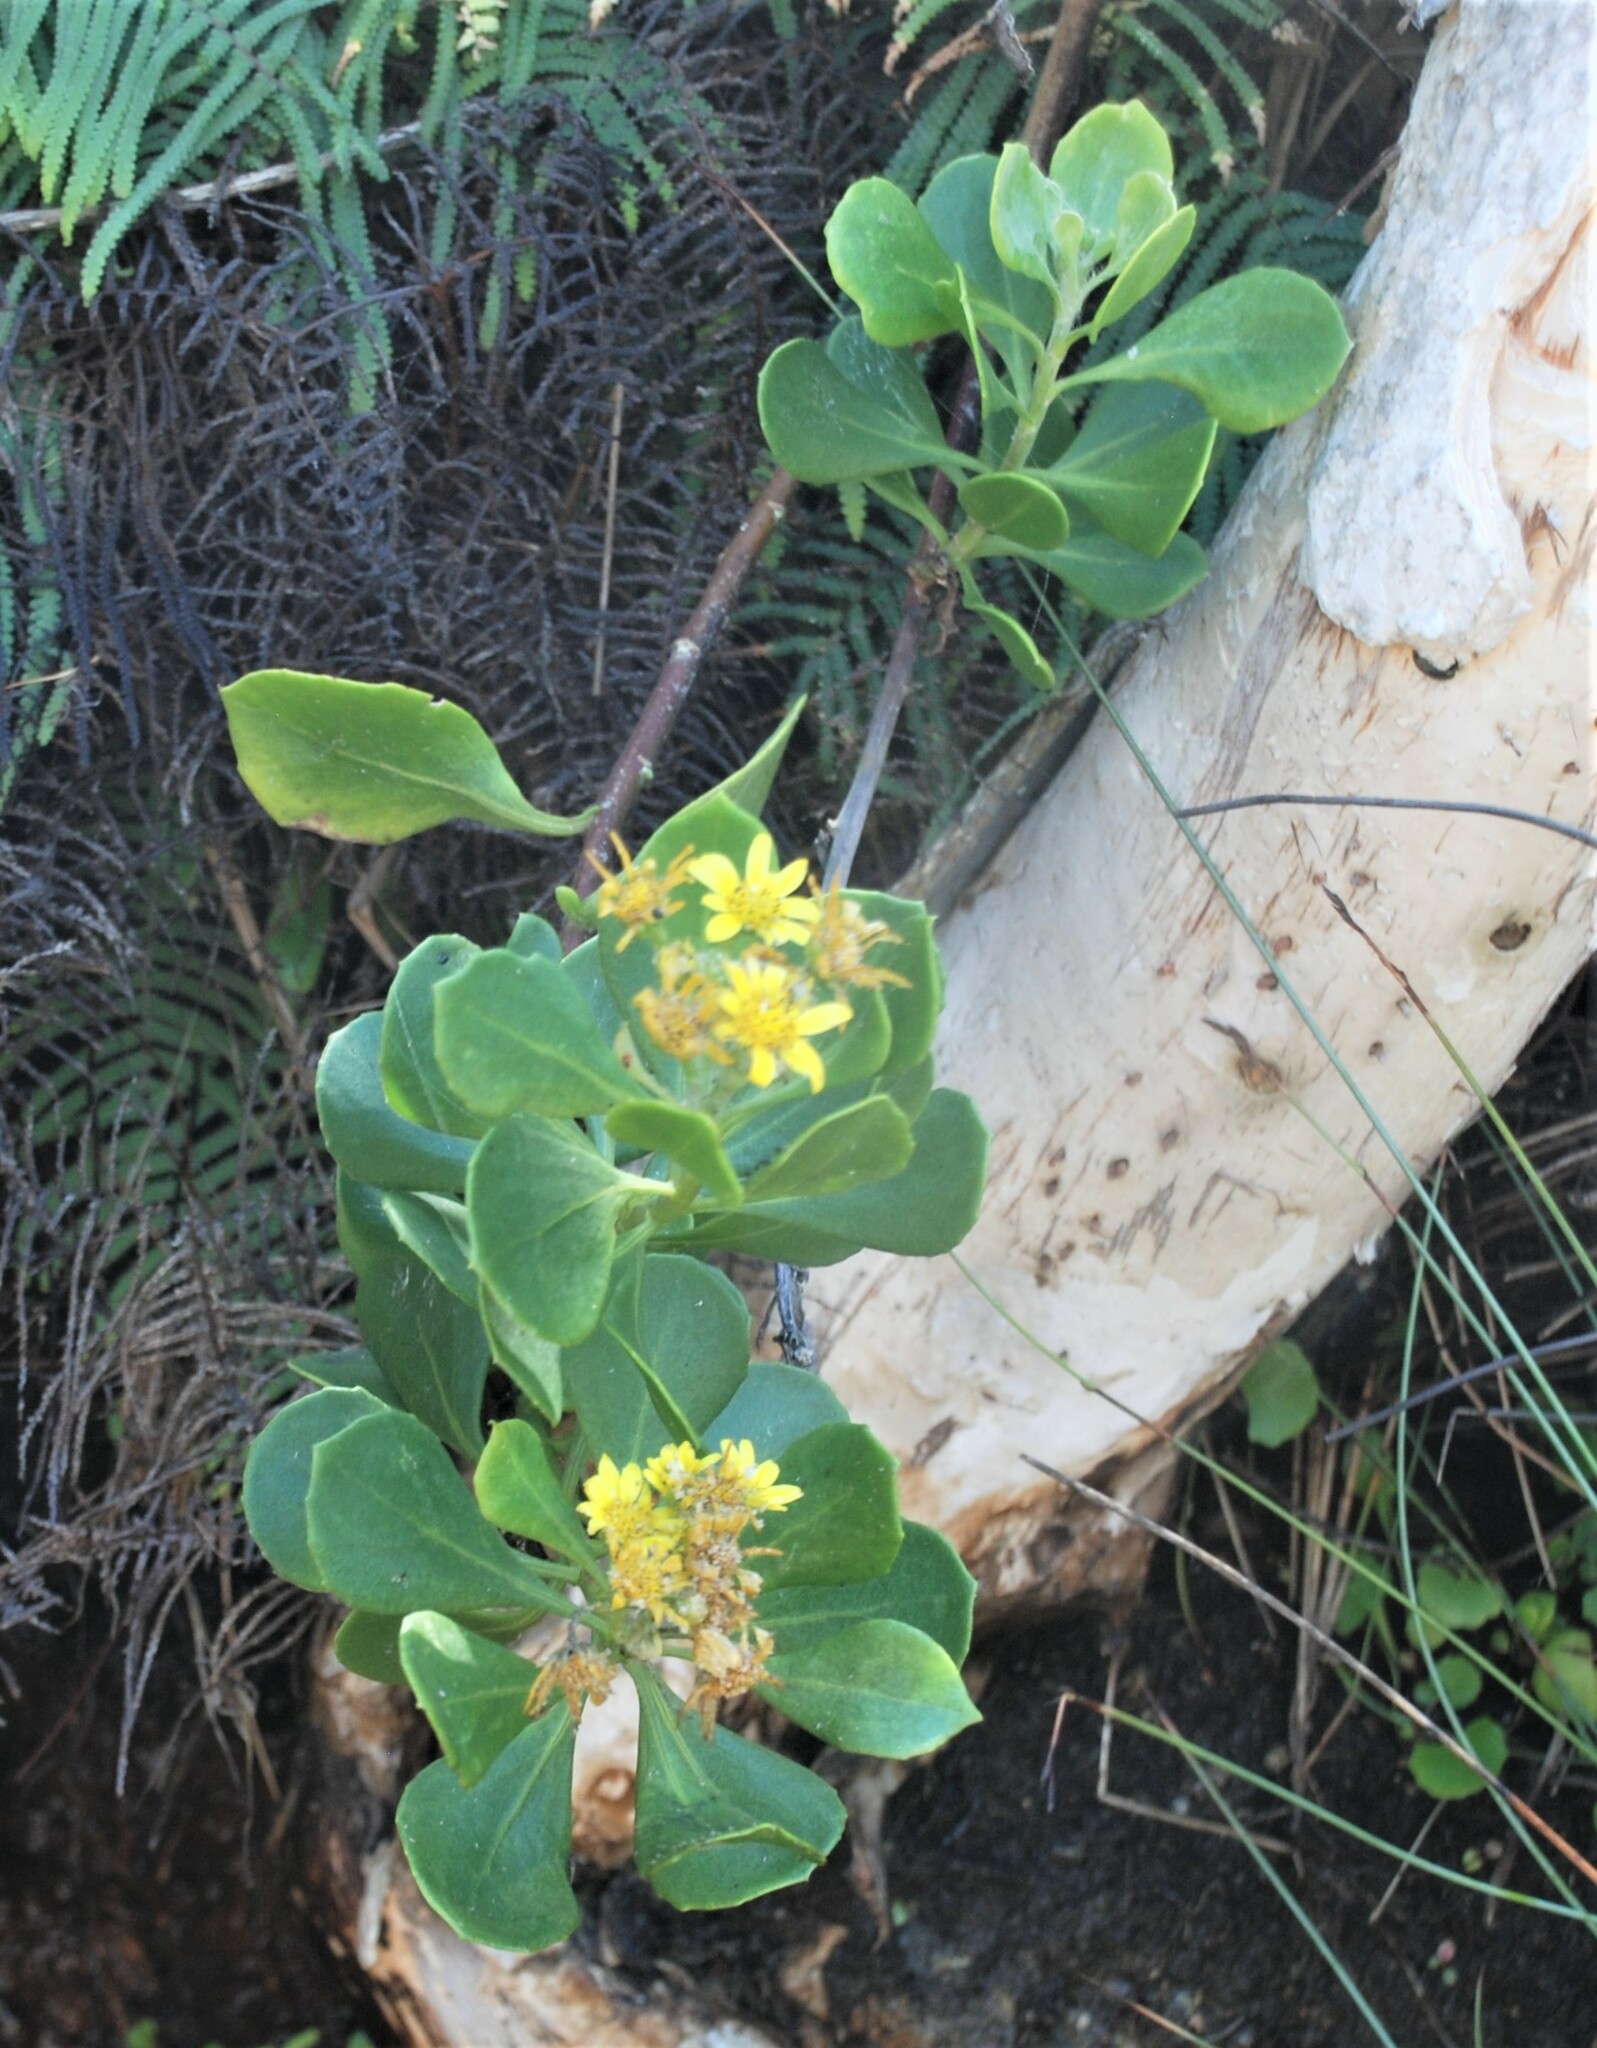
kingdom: Plantae
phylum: Tracheophyta
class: Magnoliopsida
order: Asterales
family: Asteraceae
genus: Osteospermum
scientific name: Osteospermum moniliferum
